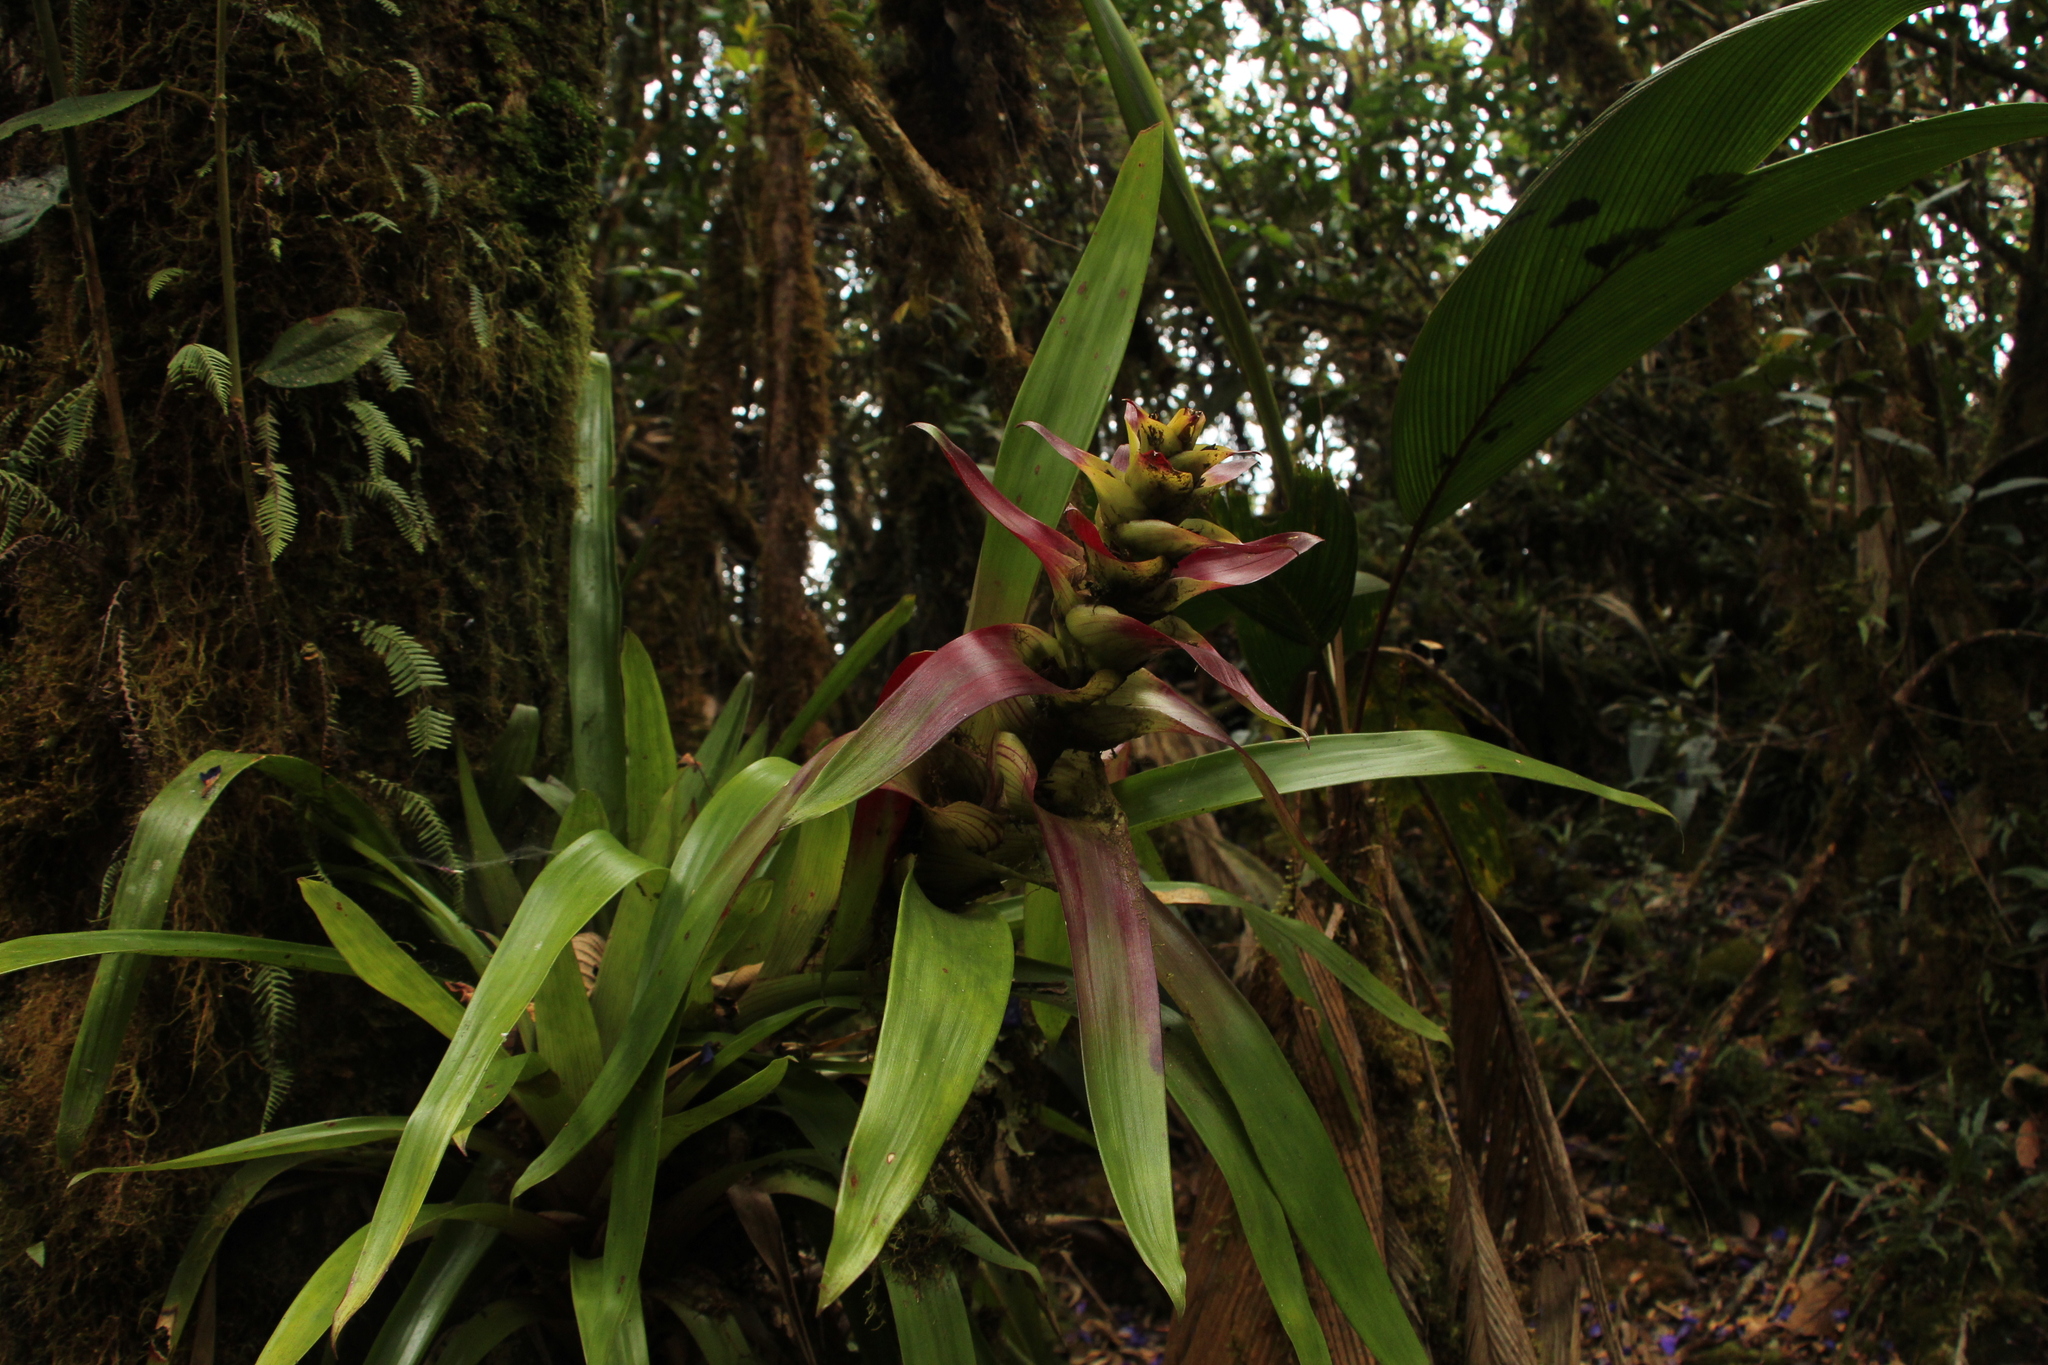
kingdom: Plantae
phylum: Tracheophyta
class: Liliopsida
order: Poales
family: Bromeliaceae
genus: Guzmania
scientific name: Guzmania squarrosa
